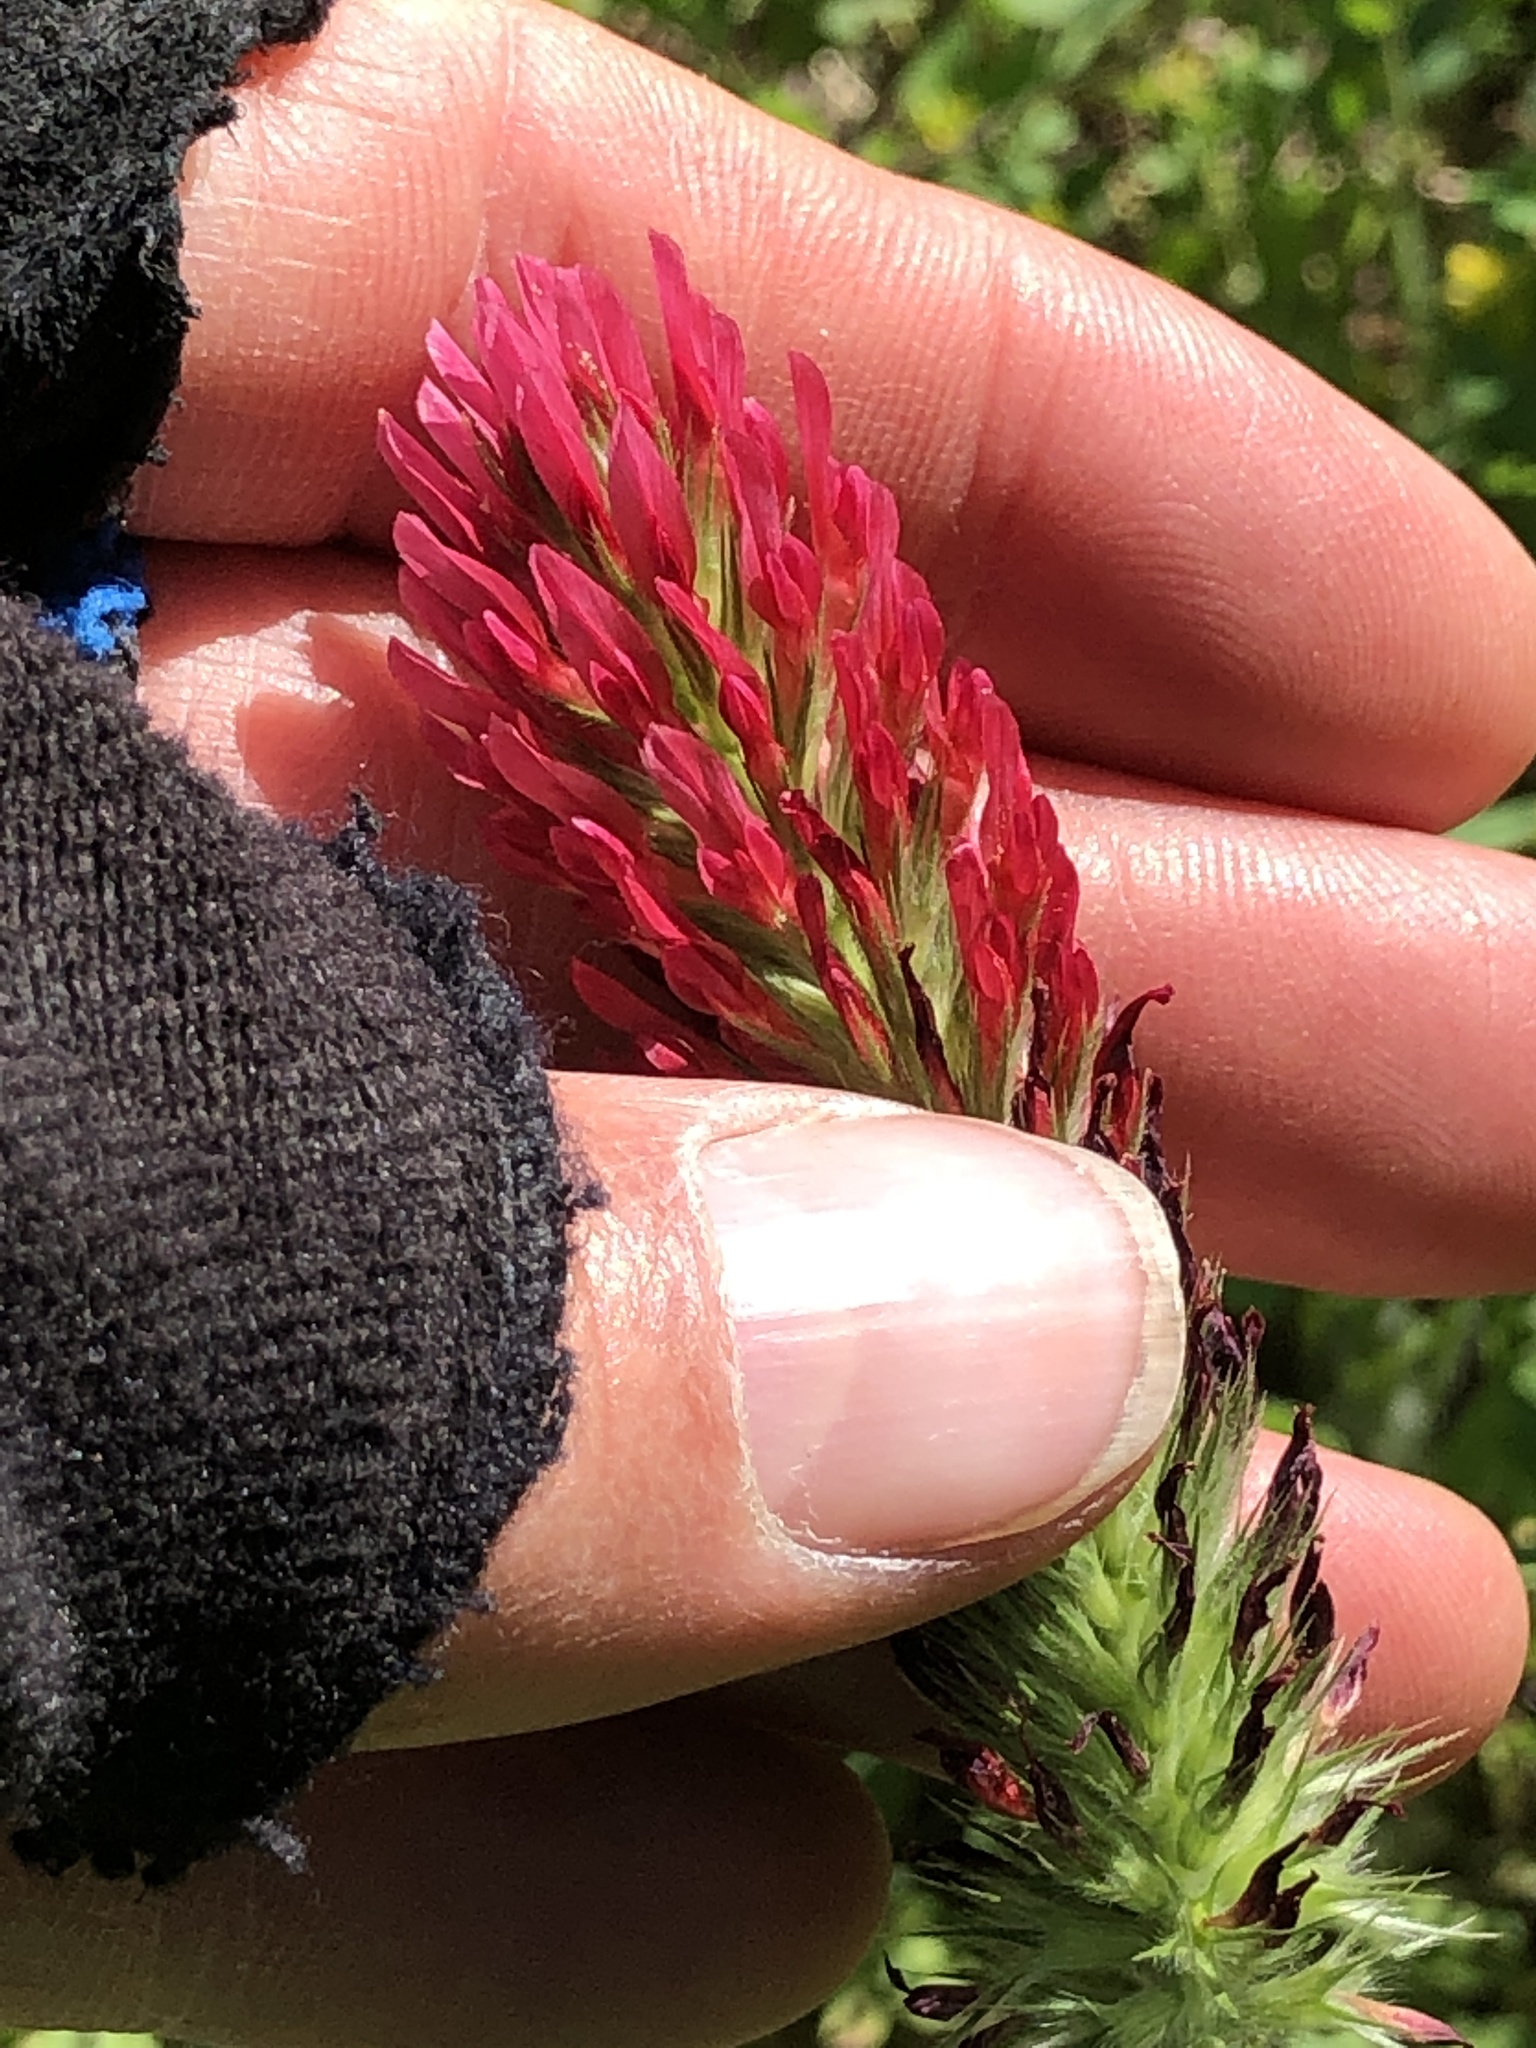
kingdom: Plantae
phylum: Tracheophyta
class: Magnoliopsida
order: Fabales
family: Fabaceae
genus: Trifolium
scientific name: Trifolium incarnatum
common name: Crimson clover
